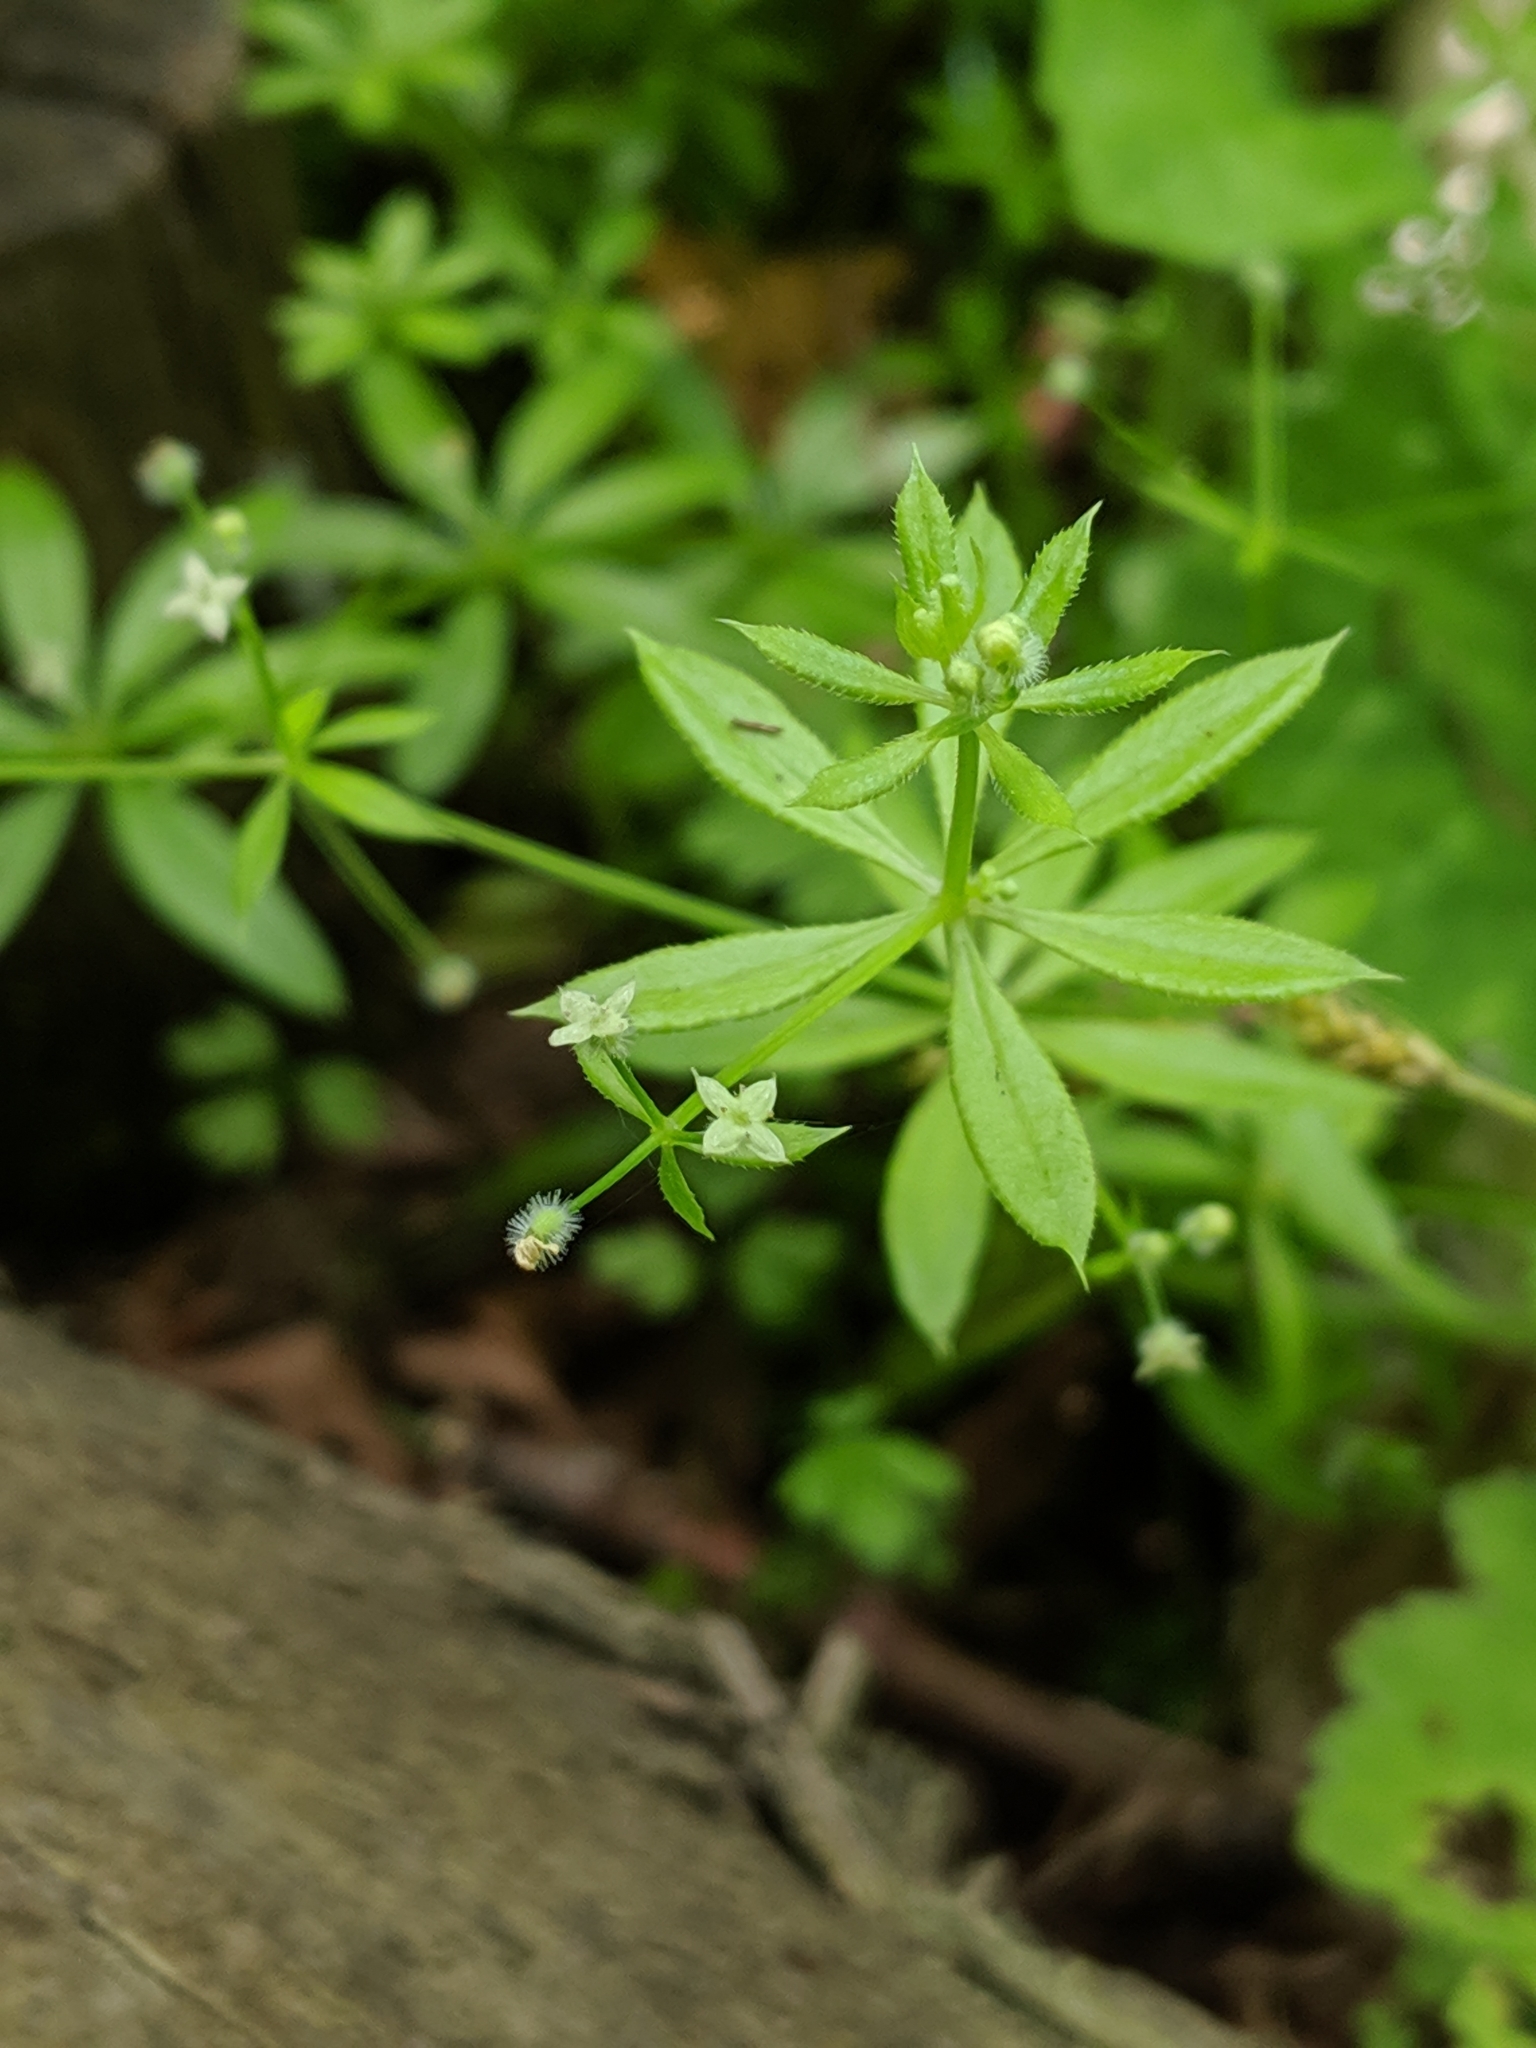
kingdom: Plantae
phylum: Tracheophyta
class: Magnoliopsida
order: Gentianales
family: Rubiaceae
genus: Galium
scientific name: Galium triflorum
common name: Fragrant bedstraw
